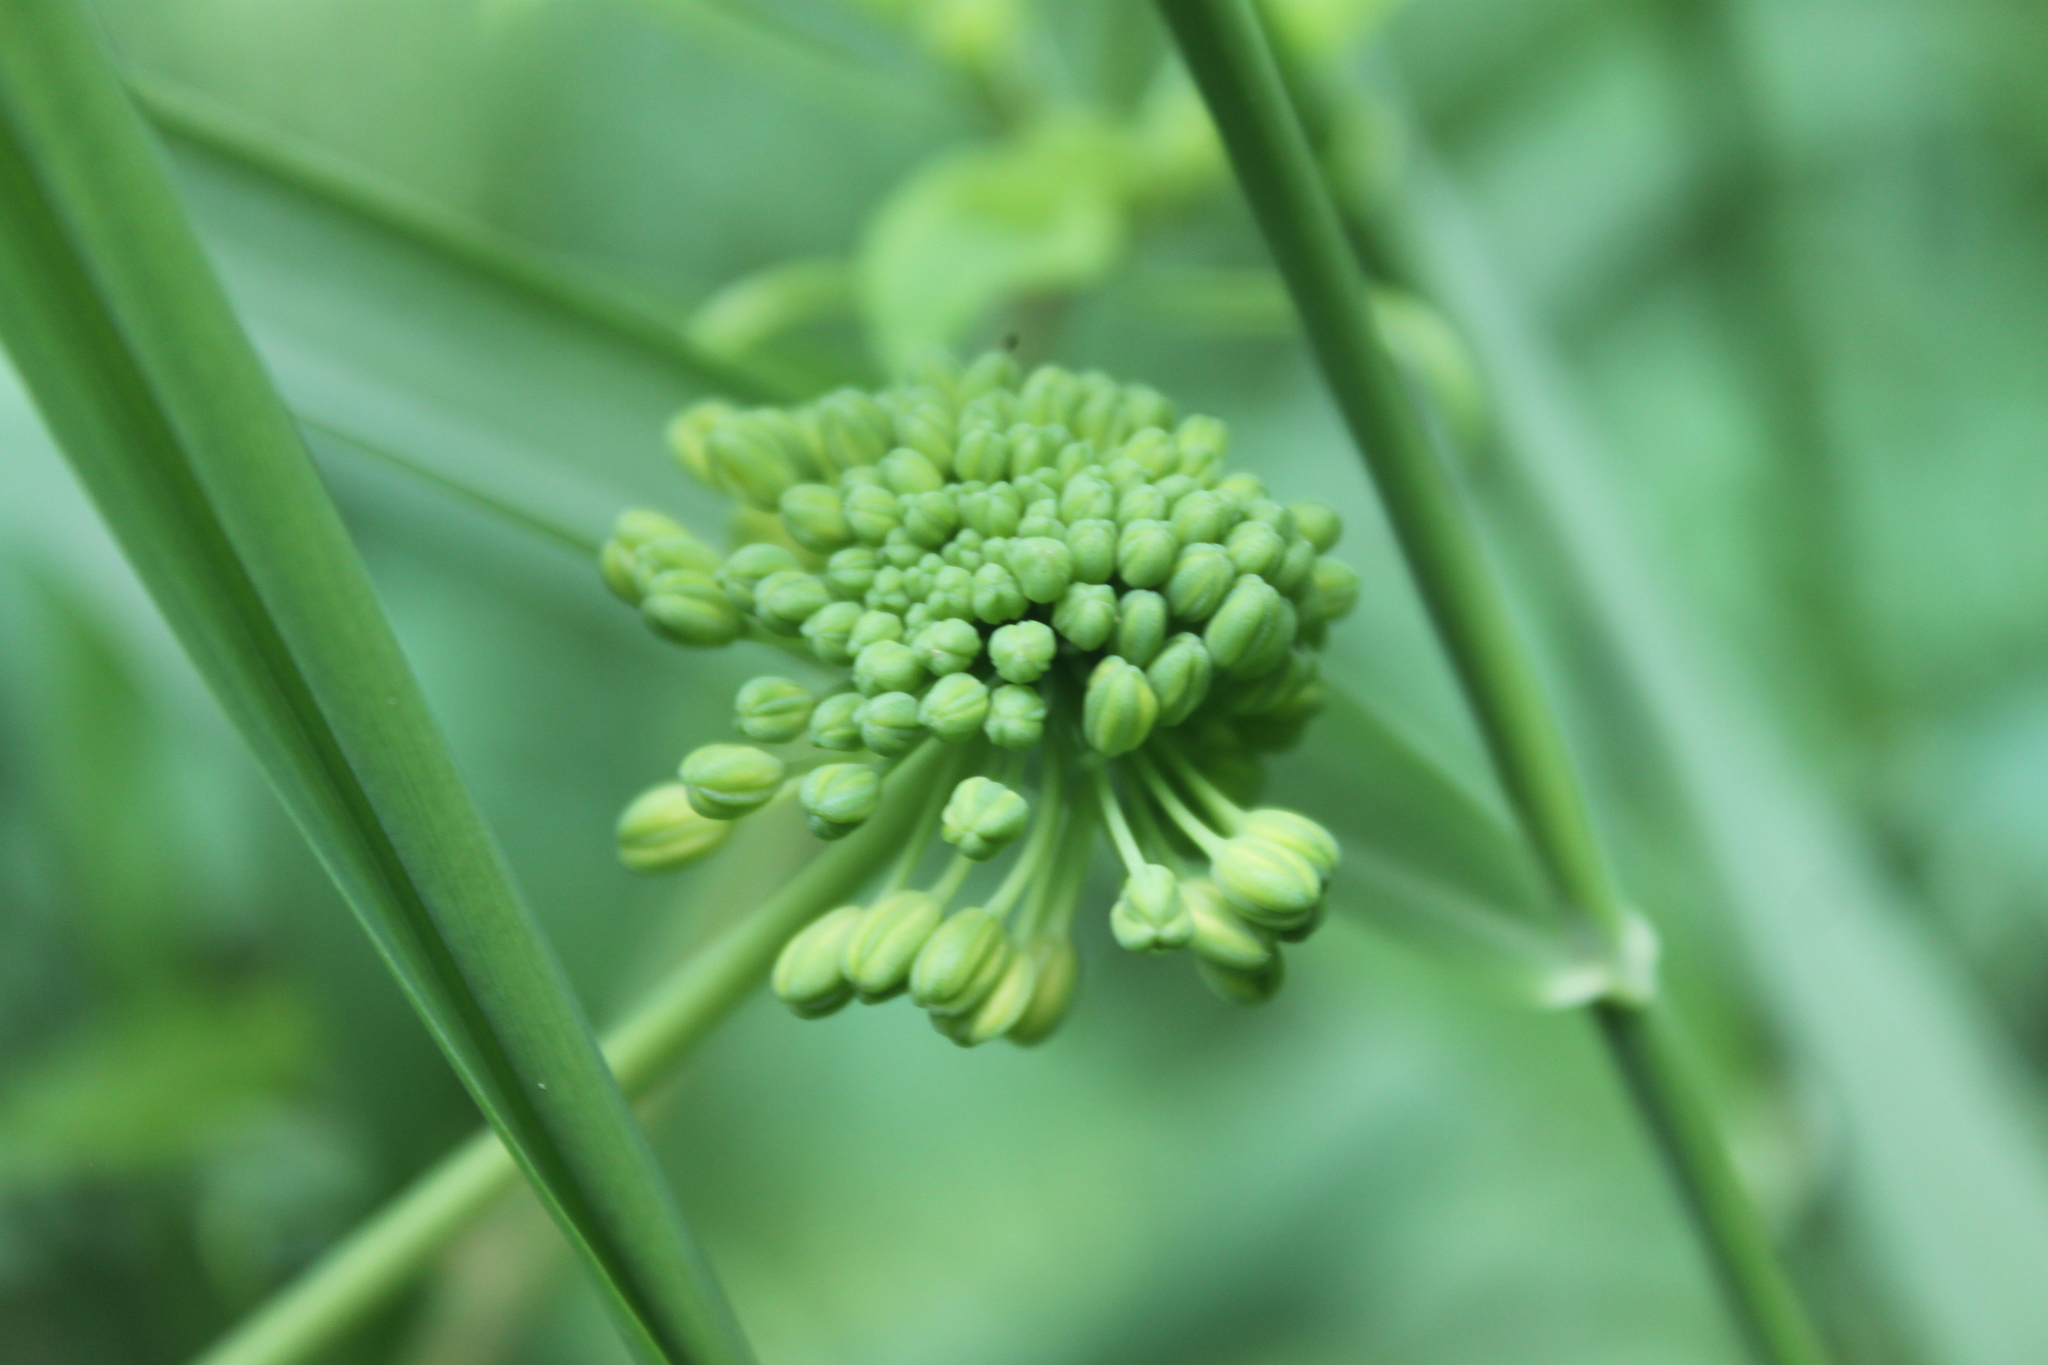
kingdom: Plantae
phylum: Tracheophyta
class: Liliopsida
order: Liliales
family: Smilacaceae
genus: Smilax
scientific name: Smilax herbacea
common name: Jacob's-ladder
